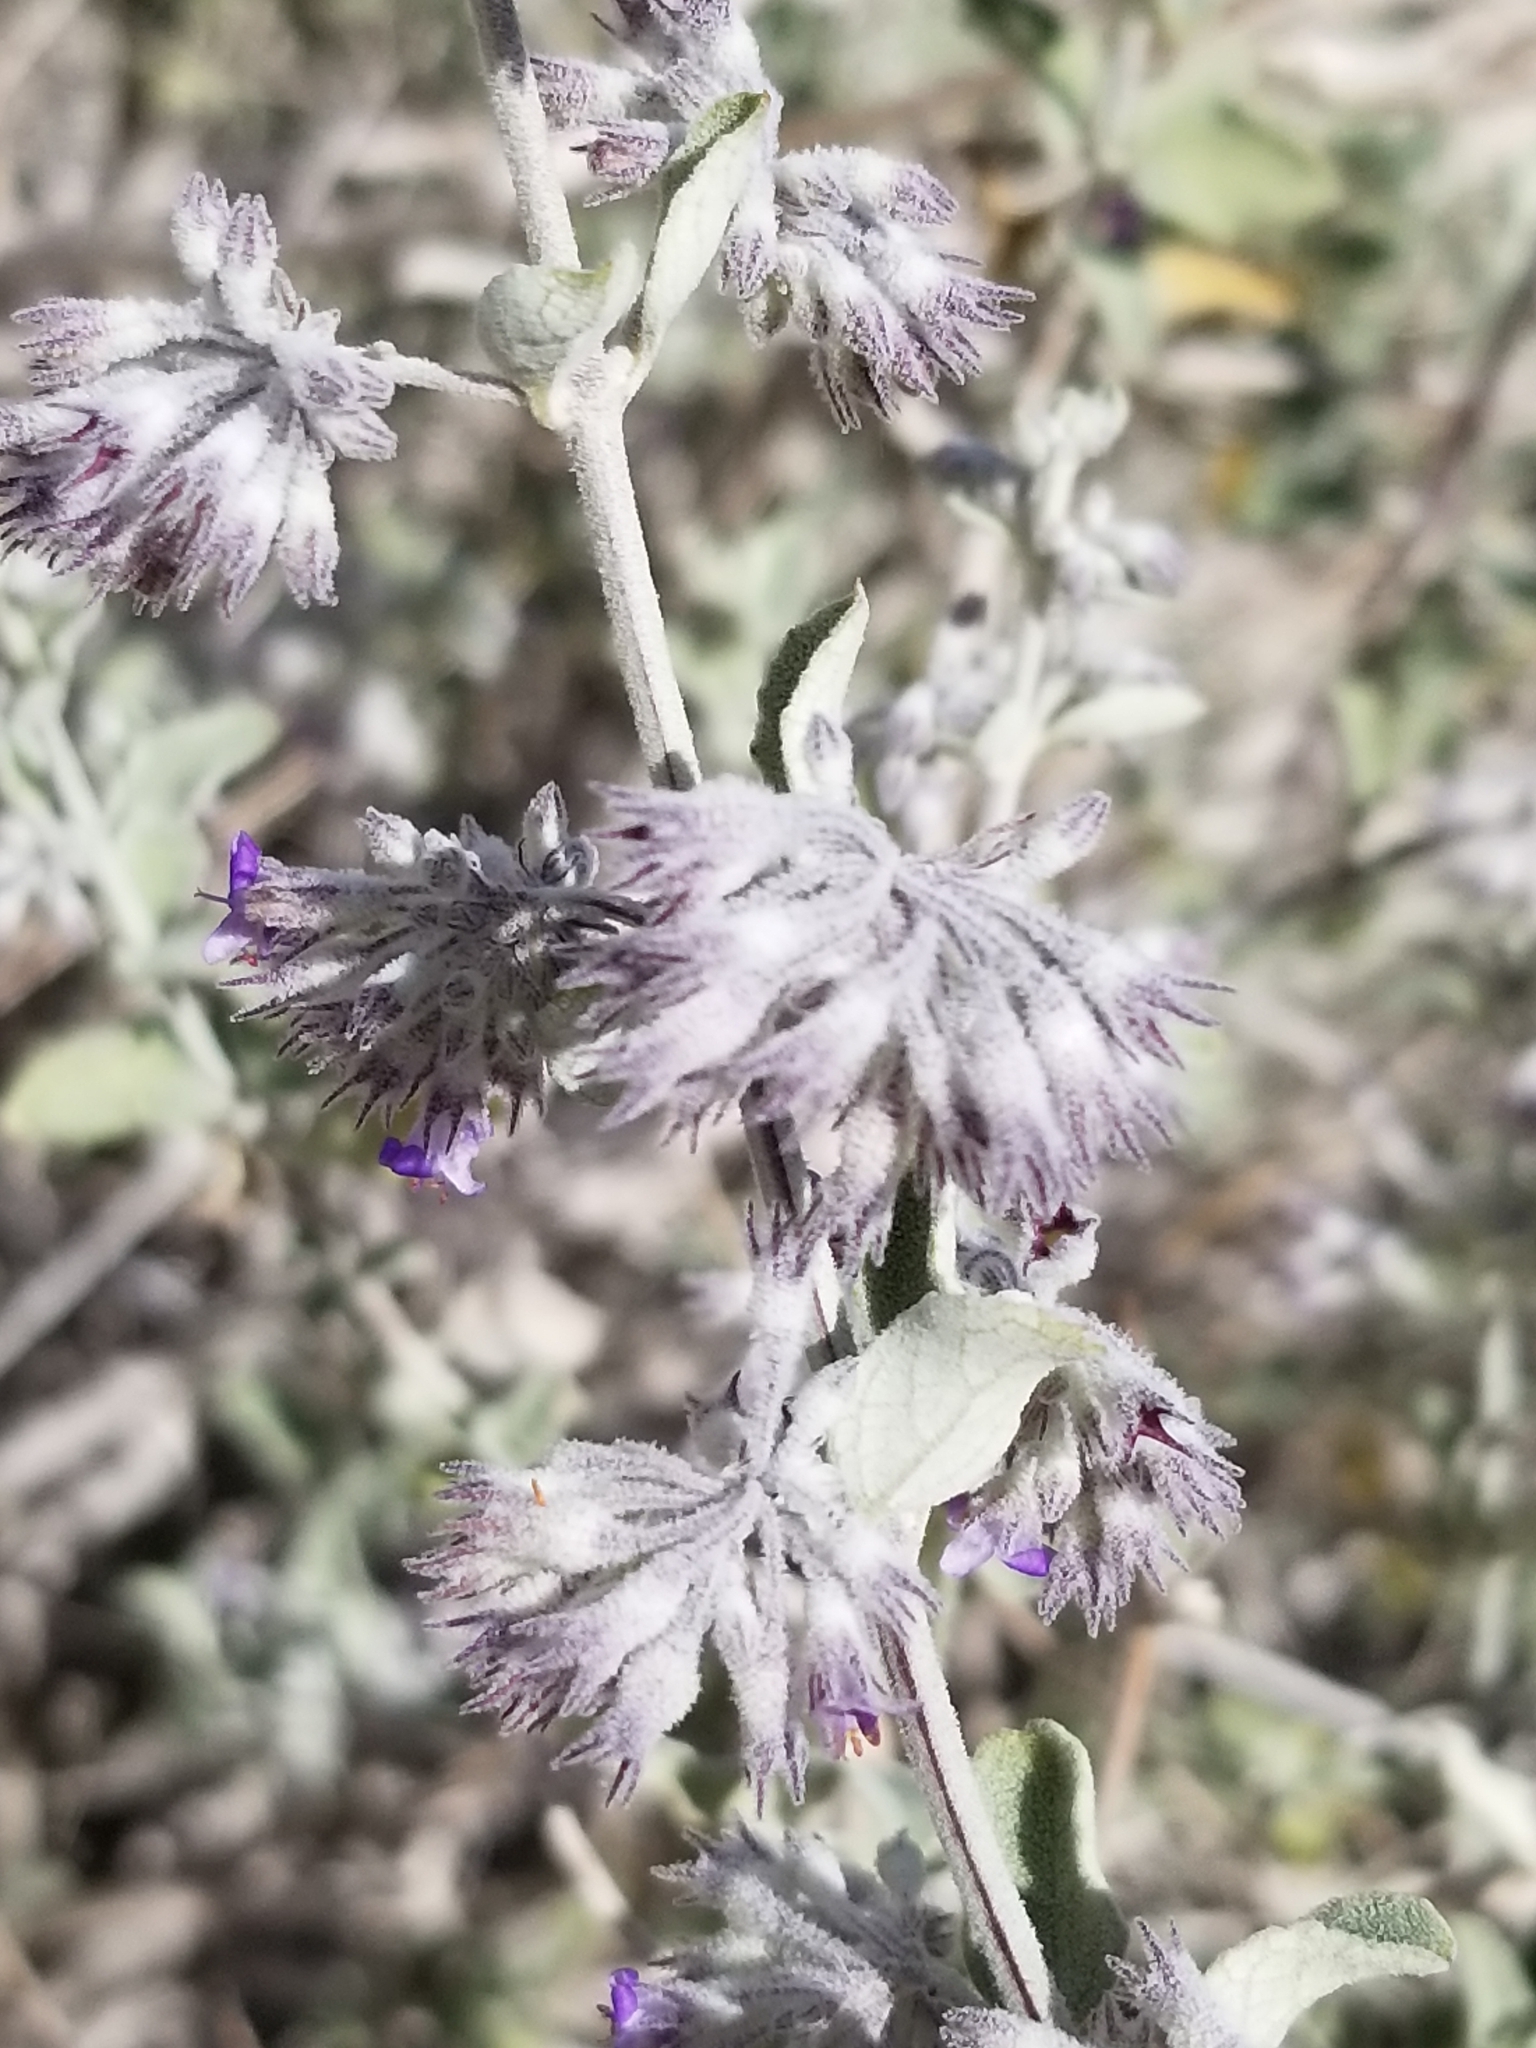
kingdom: Plantae
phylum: Tracheophyta
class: Magnoliopsida
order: Lamiales
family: Lamiaceae
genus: Condea
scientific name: Condea emoryi
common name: Chia
